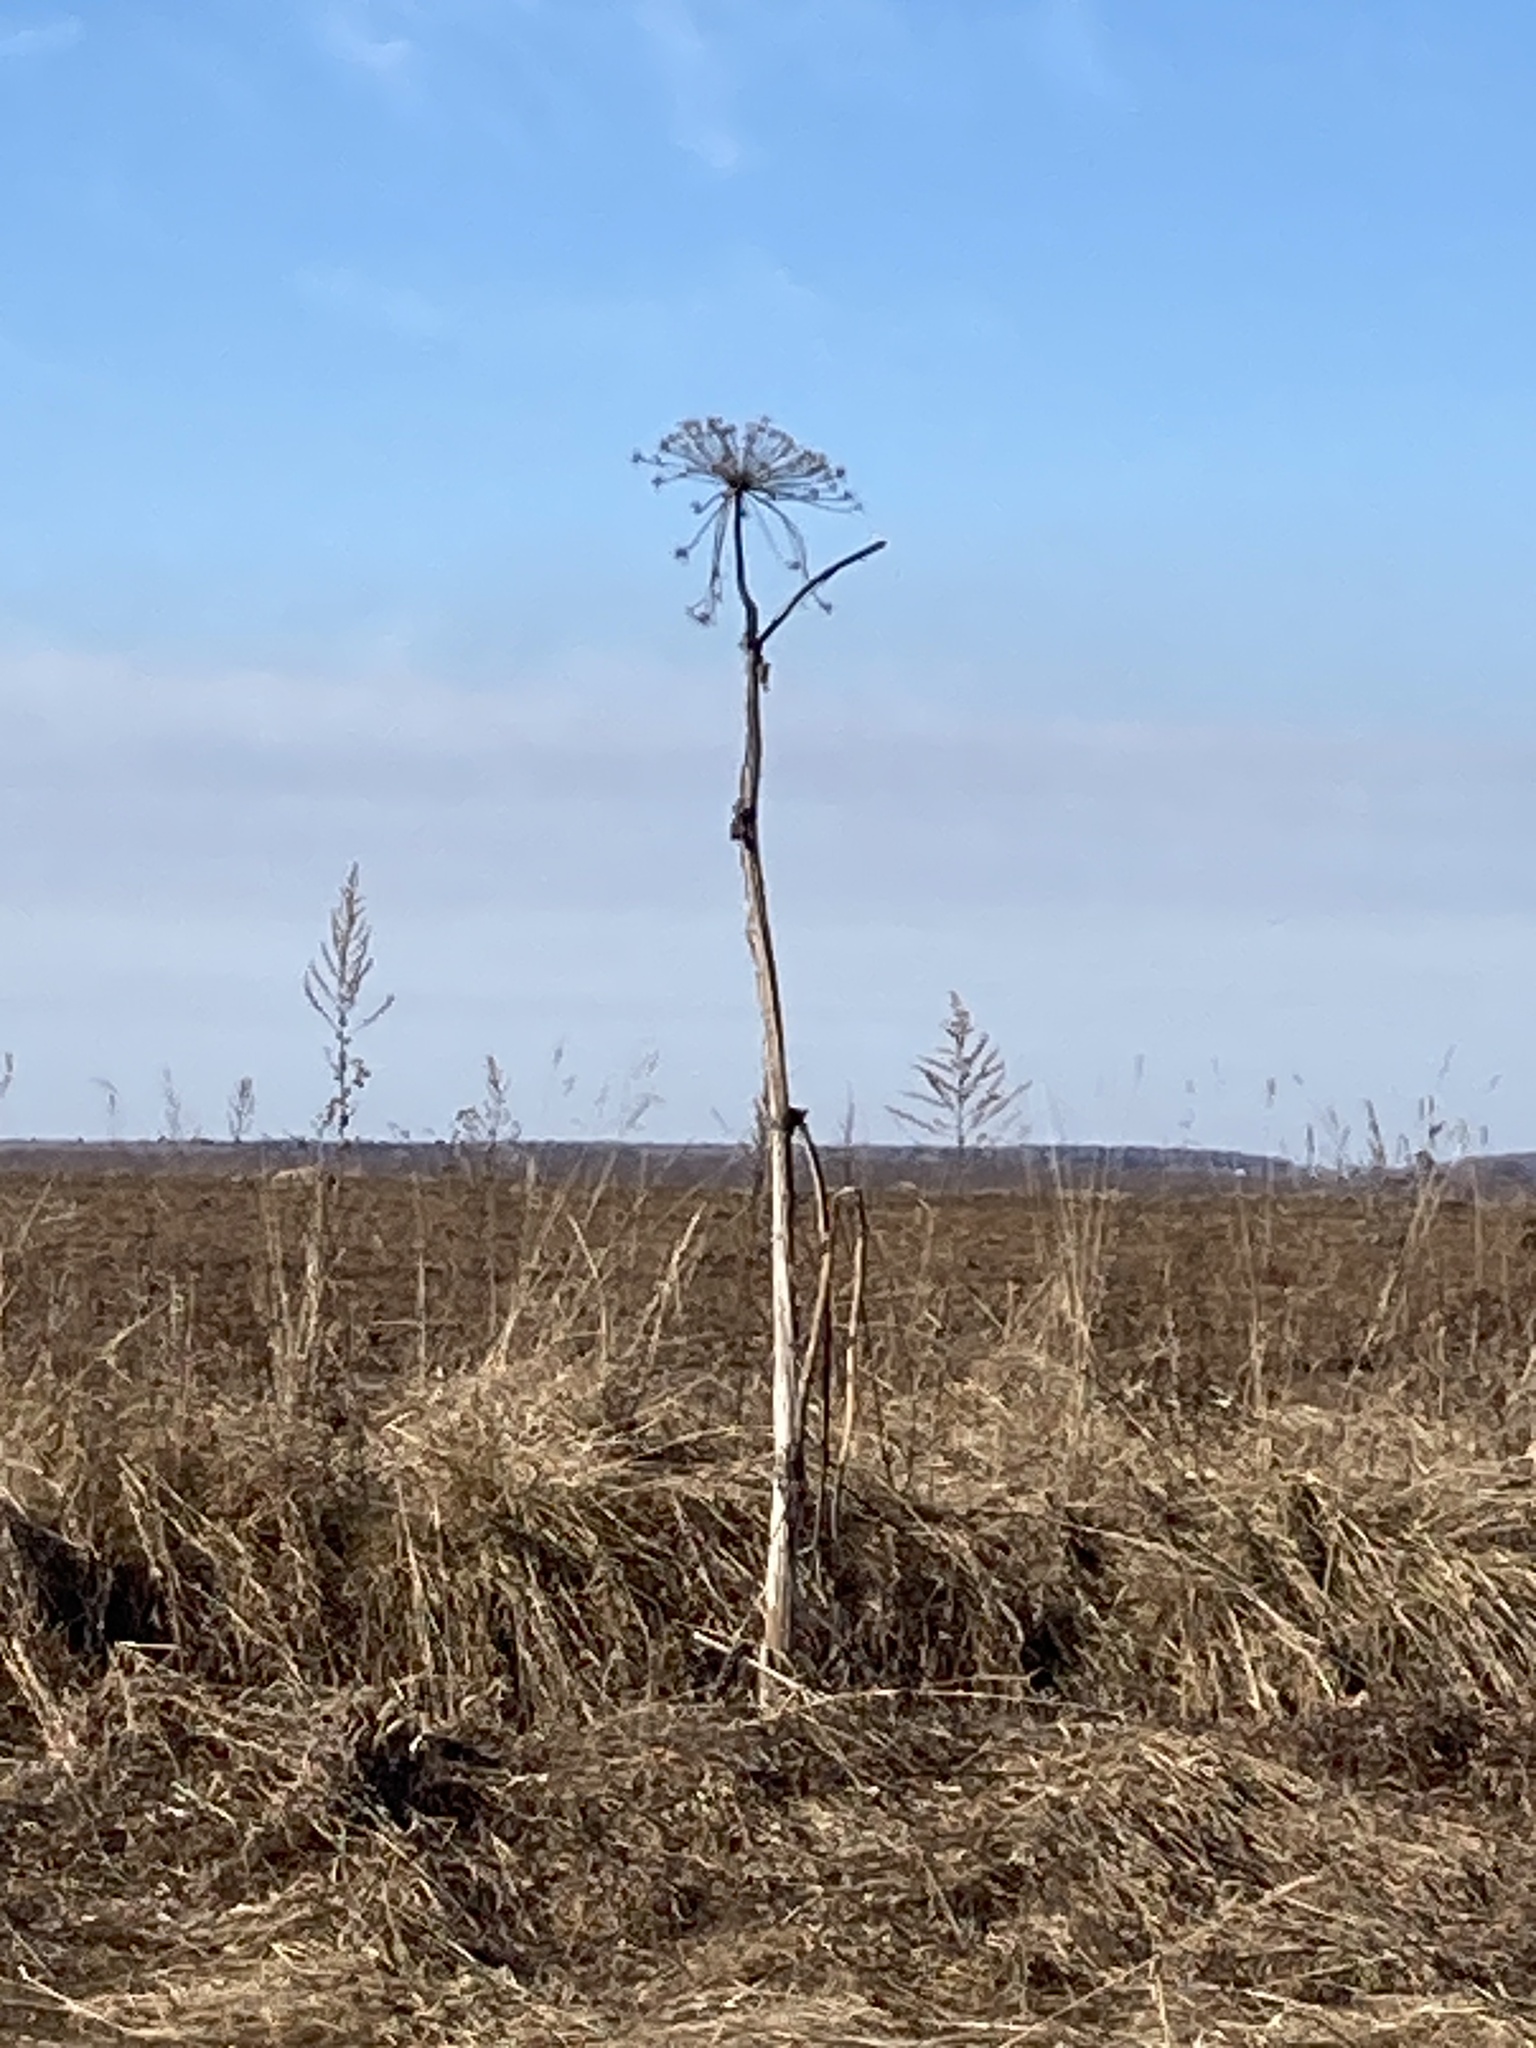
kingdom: Plantae
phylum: Tracheophyta
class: Magnoliopsida
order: Apiales
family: Apiaceae
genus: Heracleum
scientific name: Heracleum sosnowskyi
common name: Sosnowsky's hogweed
